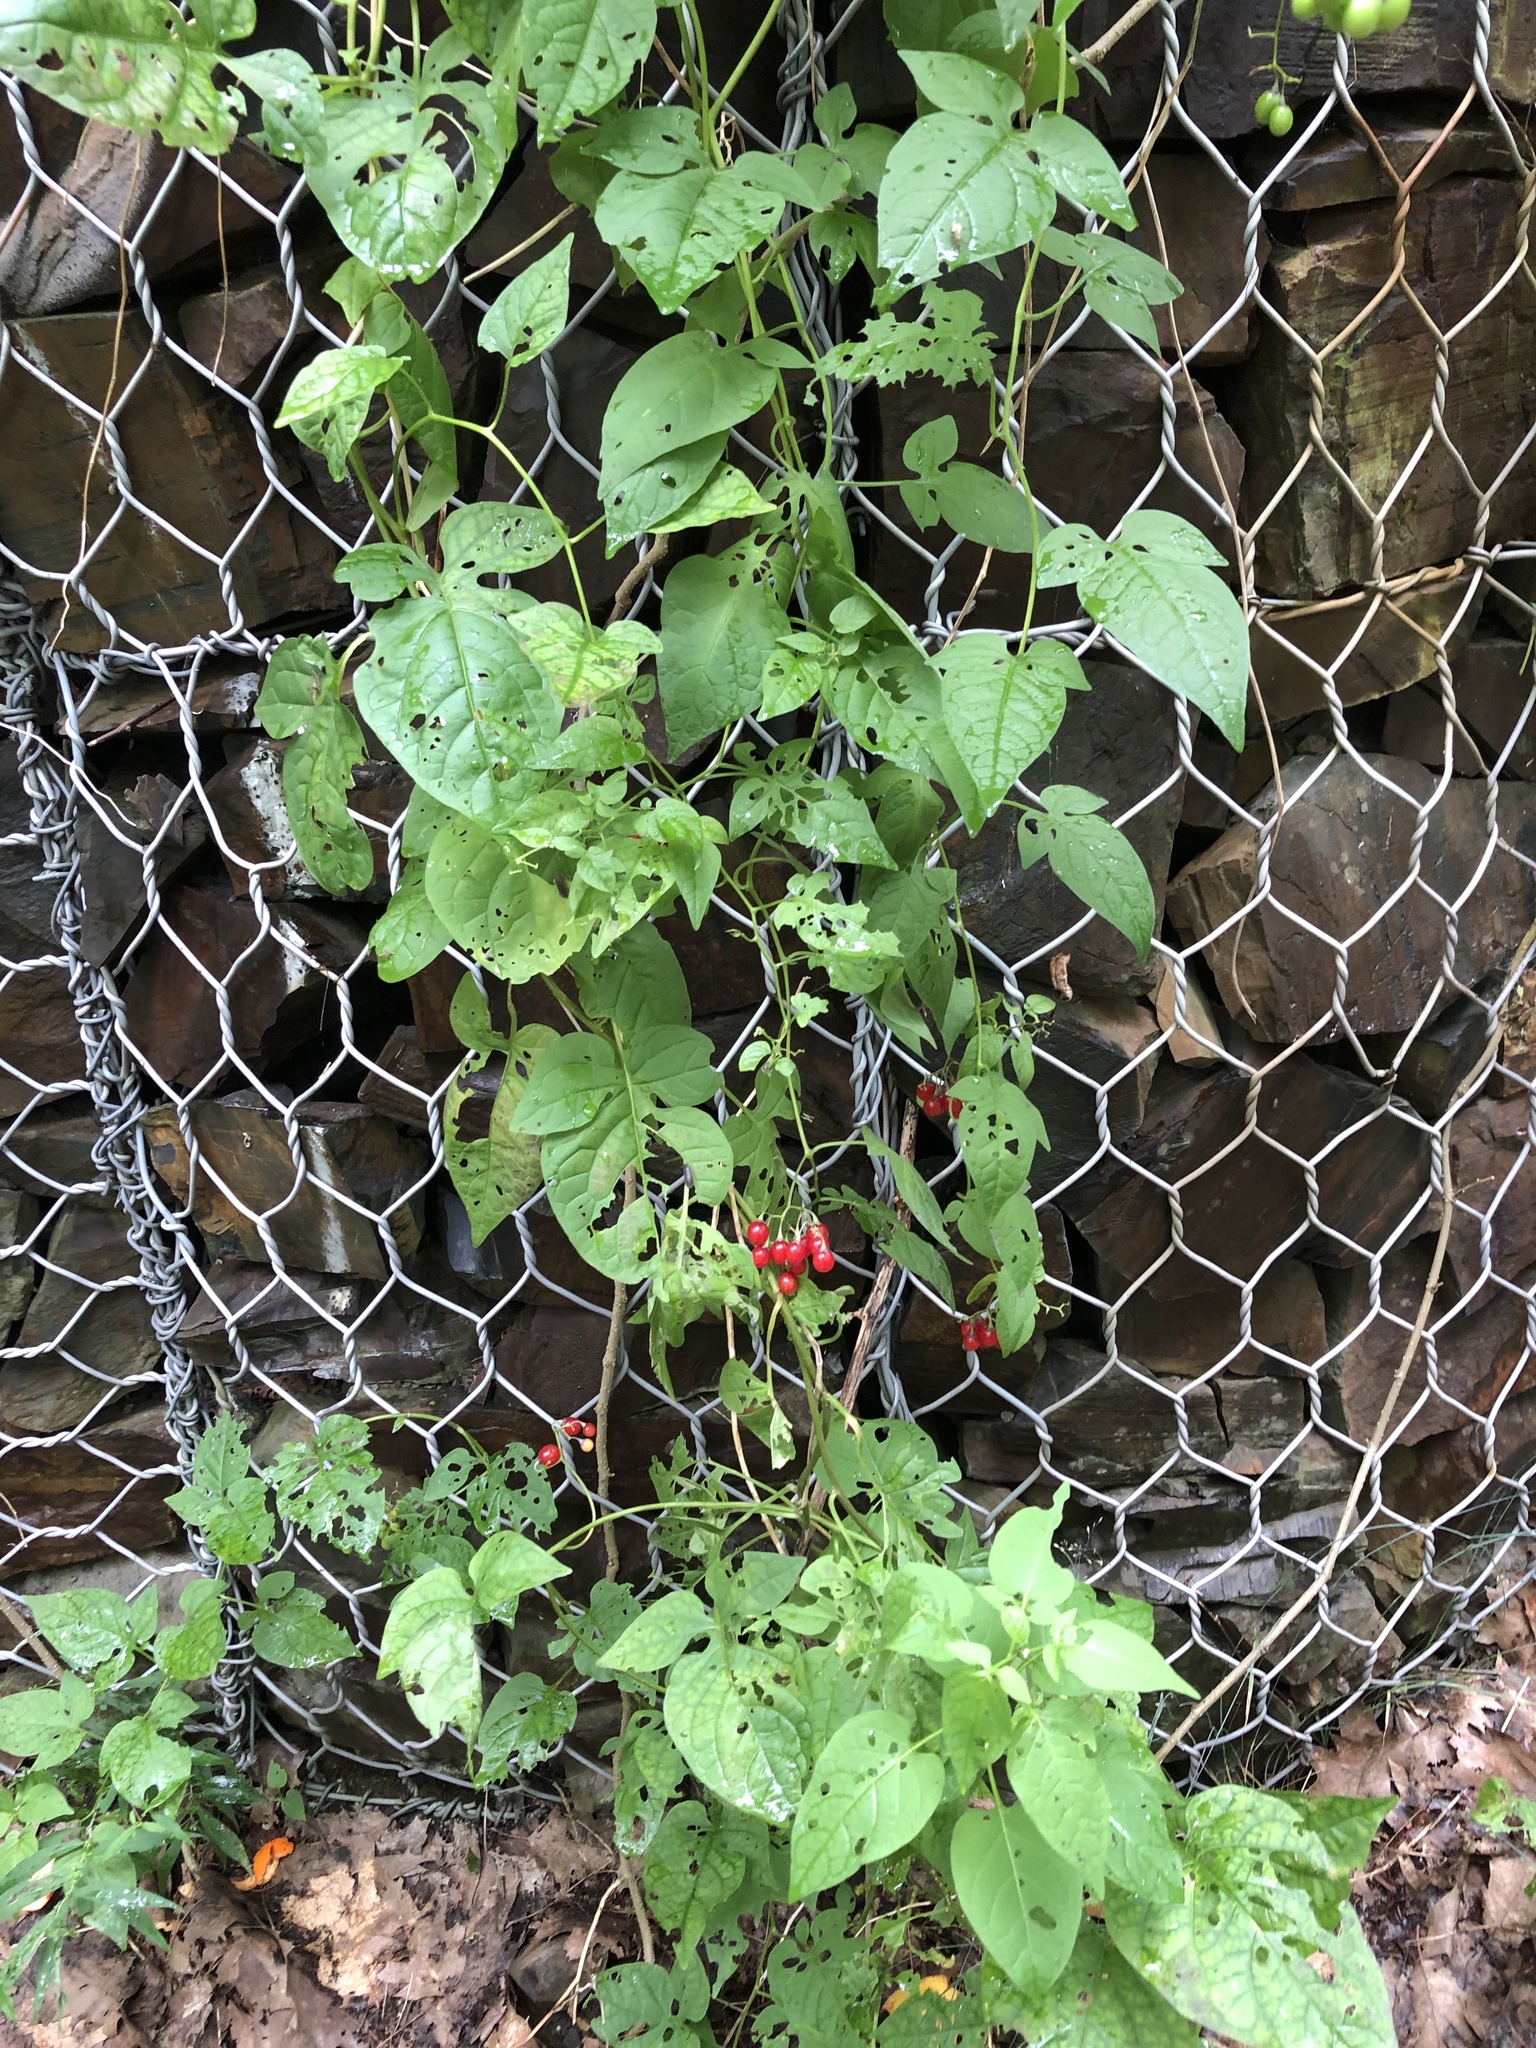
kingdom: Plantae
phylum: Tracheophyta
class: Magnoliopsida
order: Solanales
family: Solanaceae
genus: Solanum
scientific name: Solanum dulcamara
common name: Climbing nightshade
